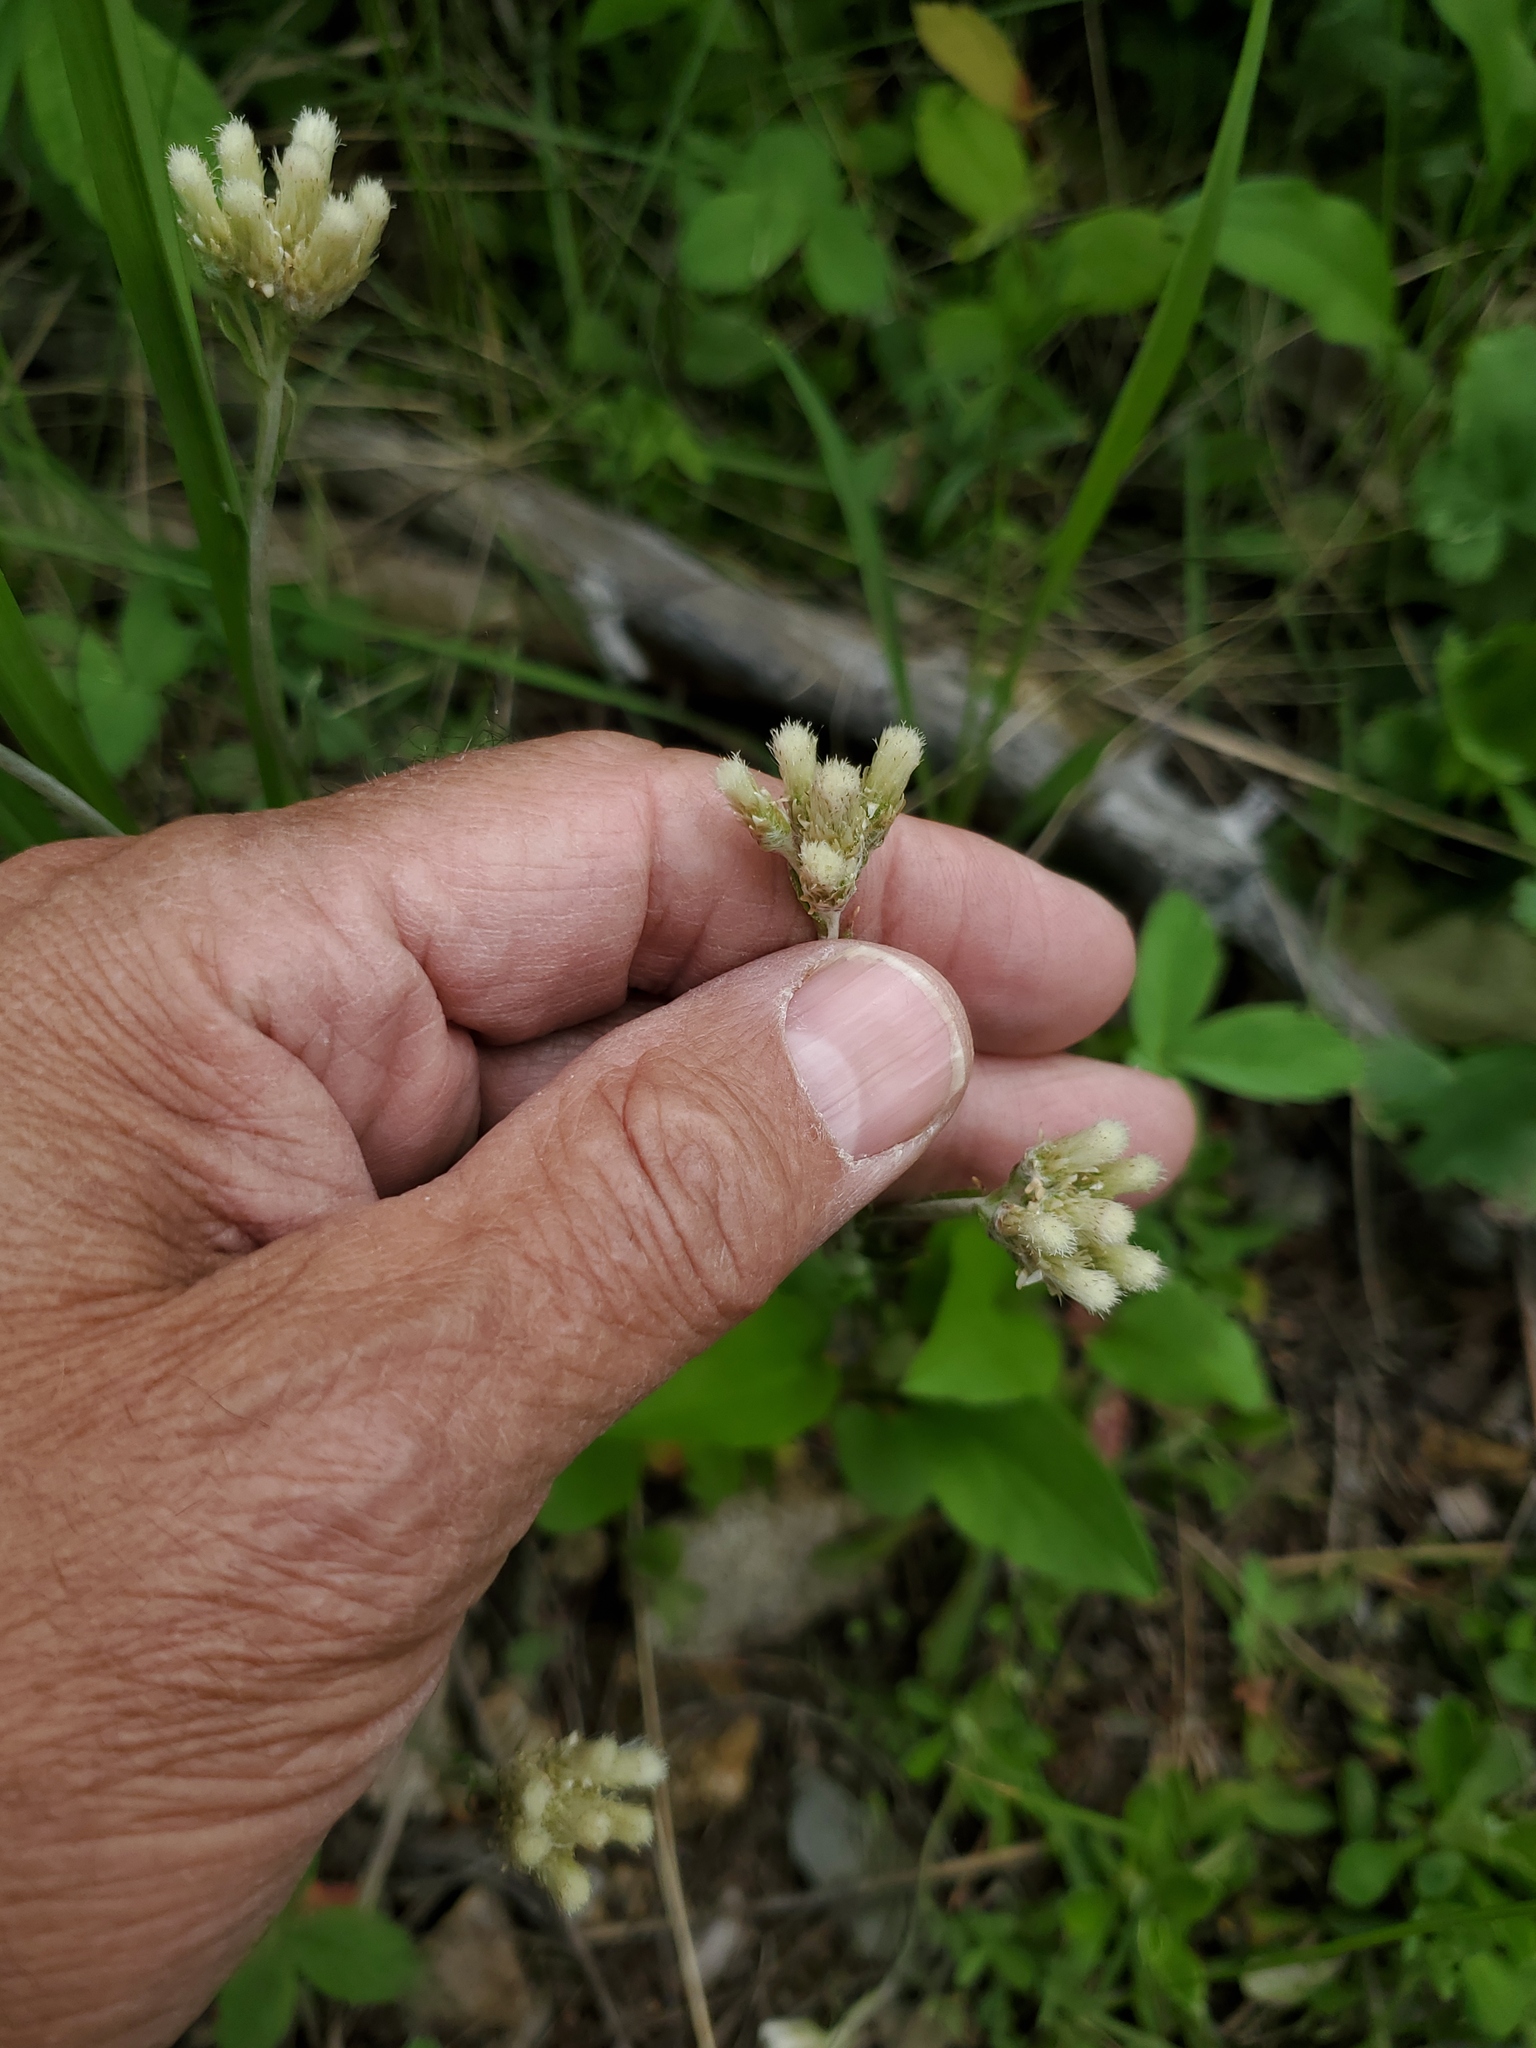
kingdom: Plantae
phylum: Tracheophyta
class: Magnoliopsida
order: Asterales
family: Asteraceae
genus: Antennaria
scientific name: Antennaria howellii
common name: Howell's pussytoes
